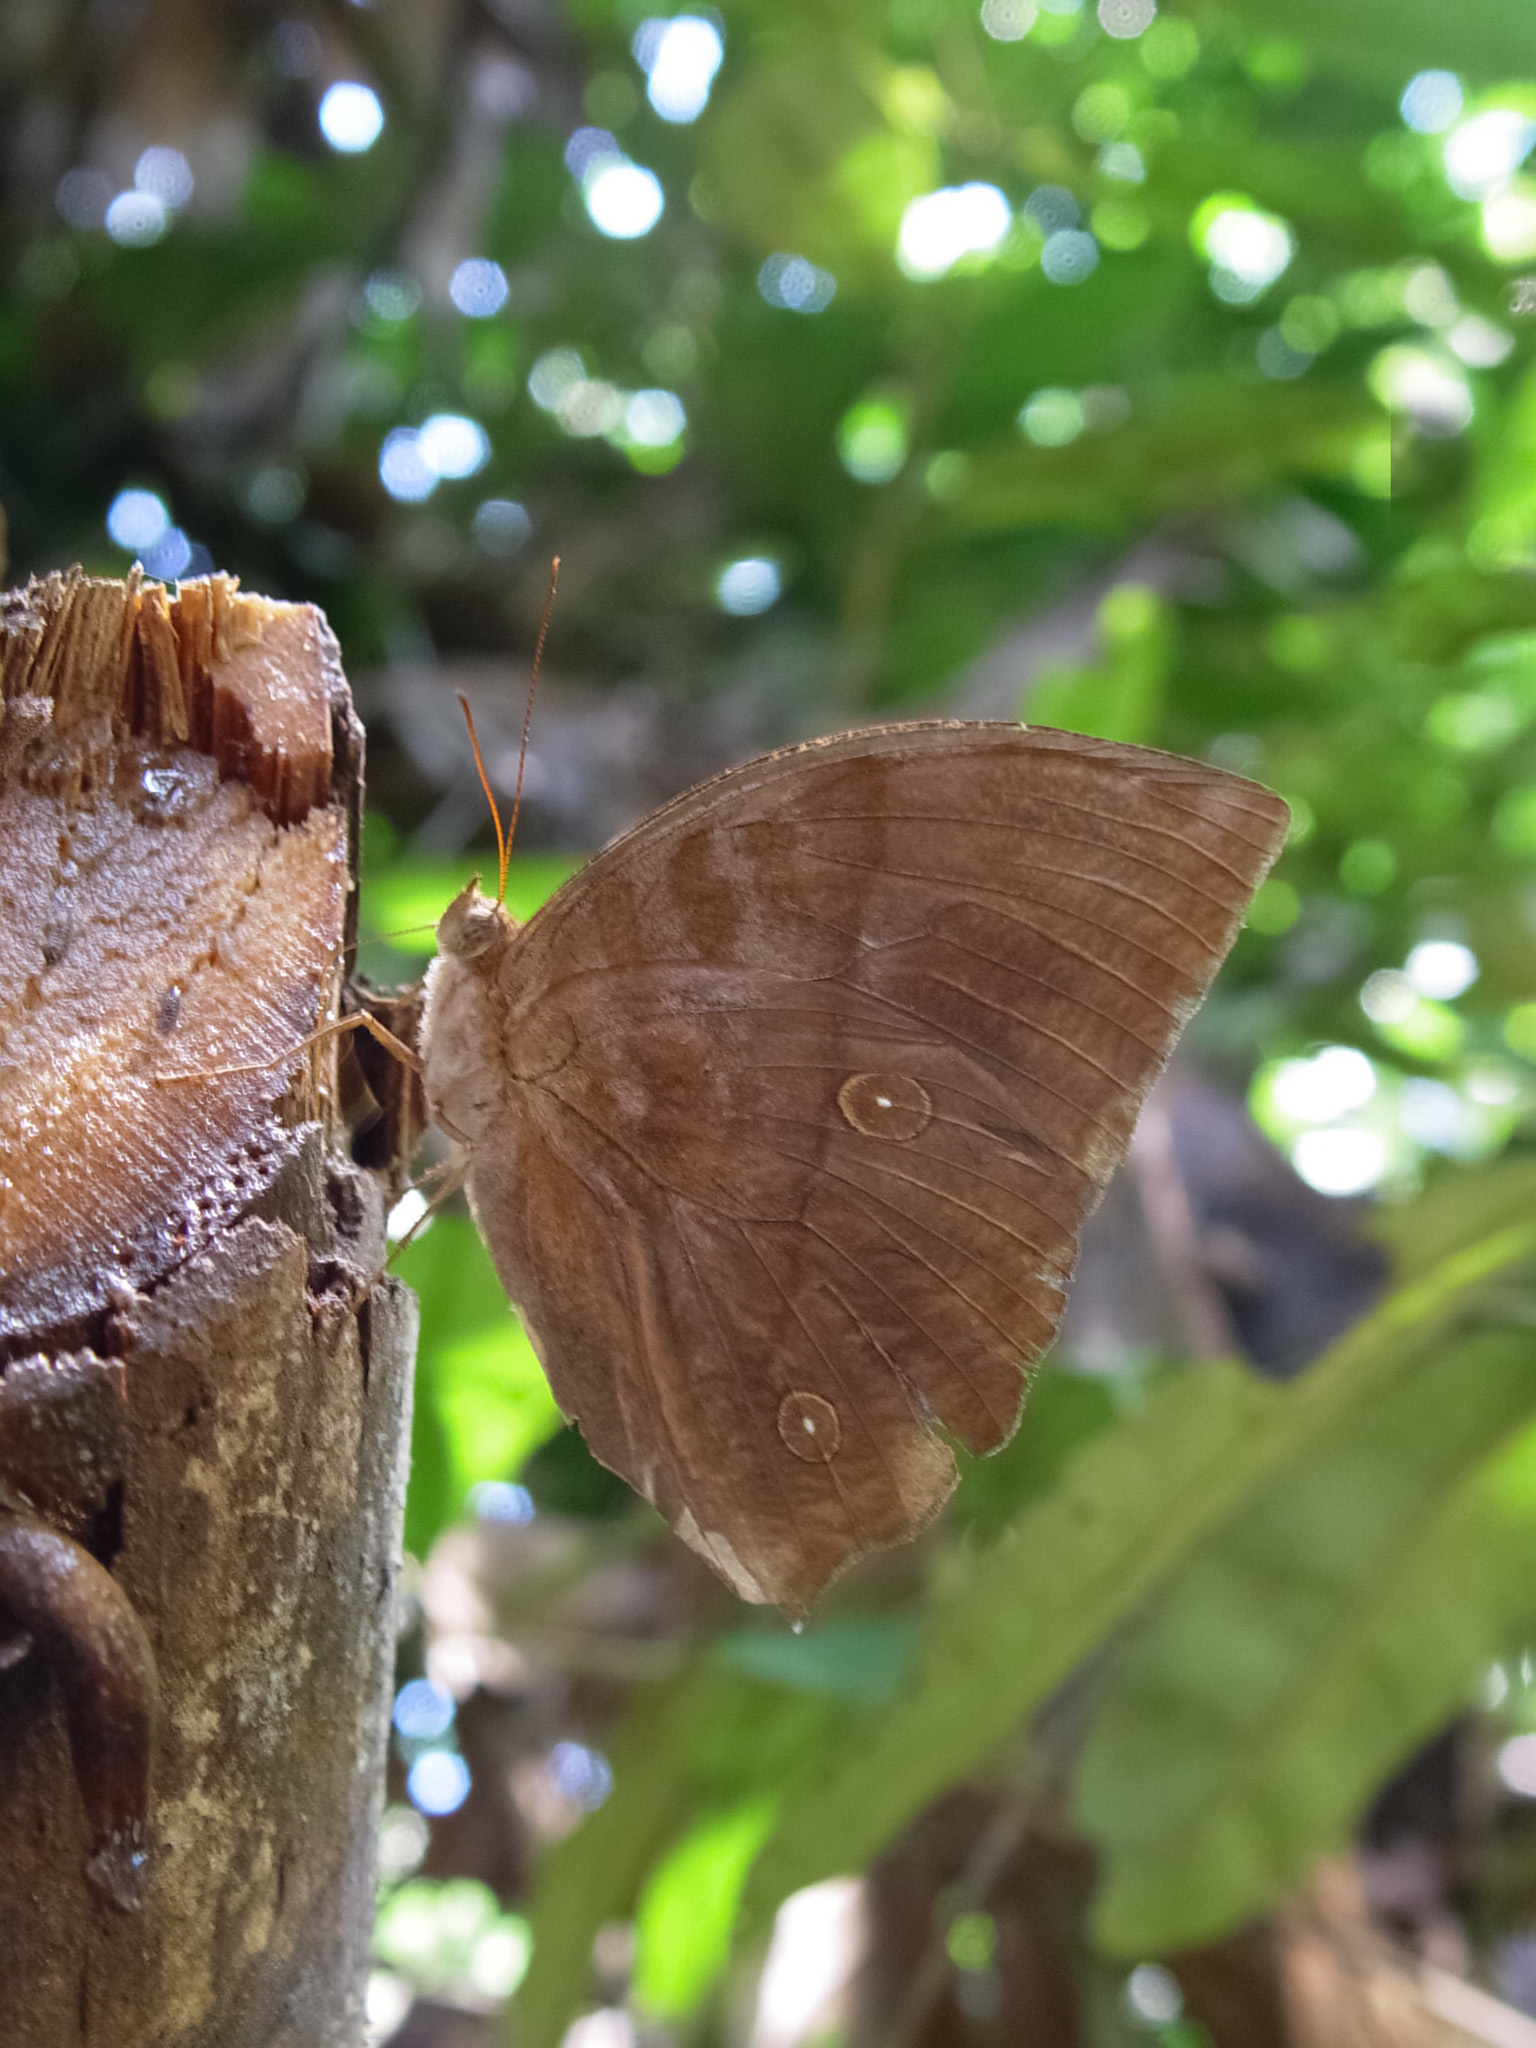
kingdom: Animalia
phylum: Arthropoda
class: Insecta
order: Lepidoptera
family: Nymphalidae
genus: Zeuxidia
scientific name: Zeuxidia amethysta
